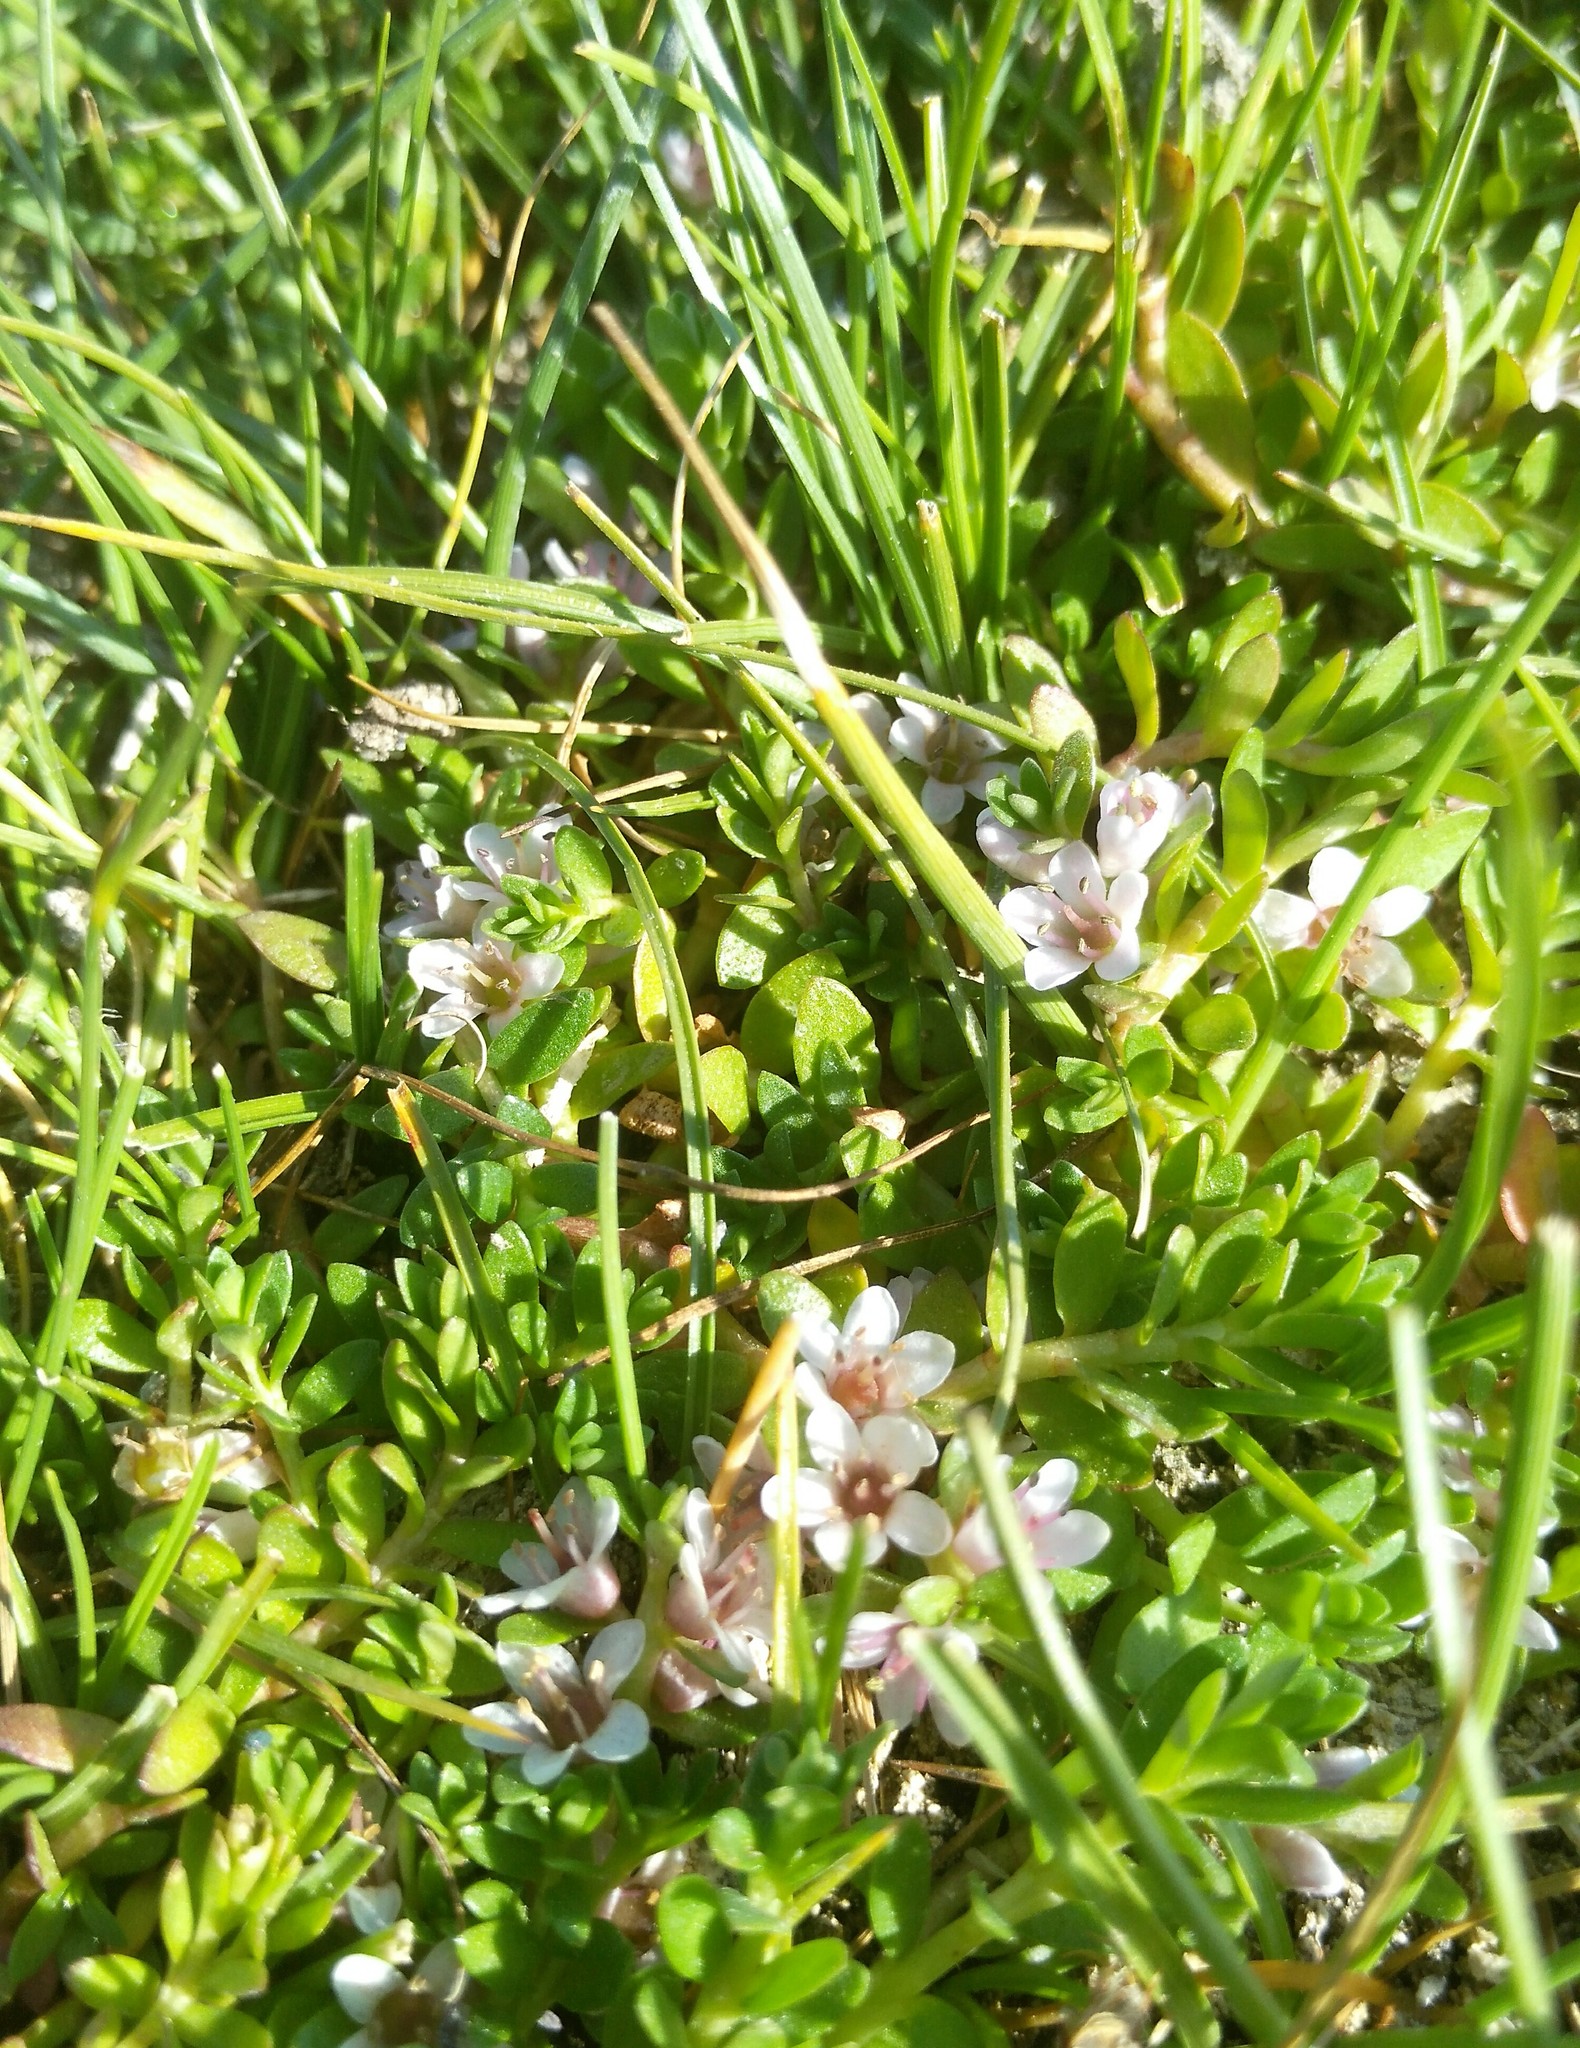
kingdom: Plantae
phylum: Tracheophyta
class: Magnoliopsida
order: Ericales
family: Primulaceae
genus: Lysimachia
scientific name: Lysimachia maritima
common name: Sea milkwort
